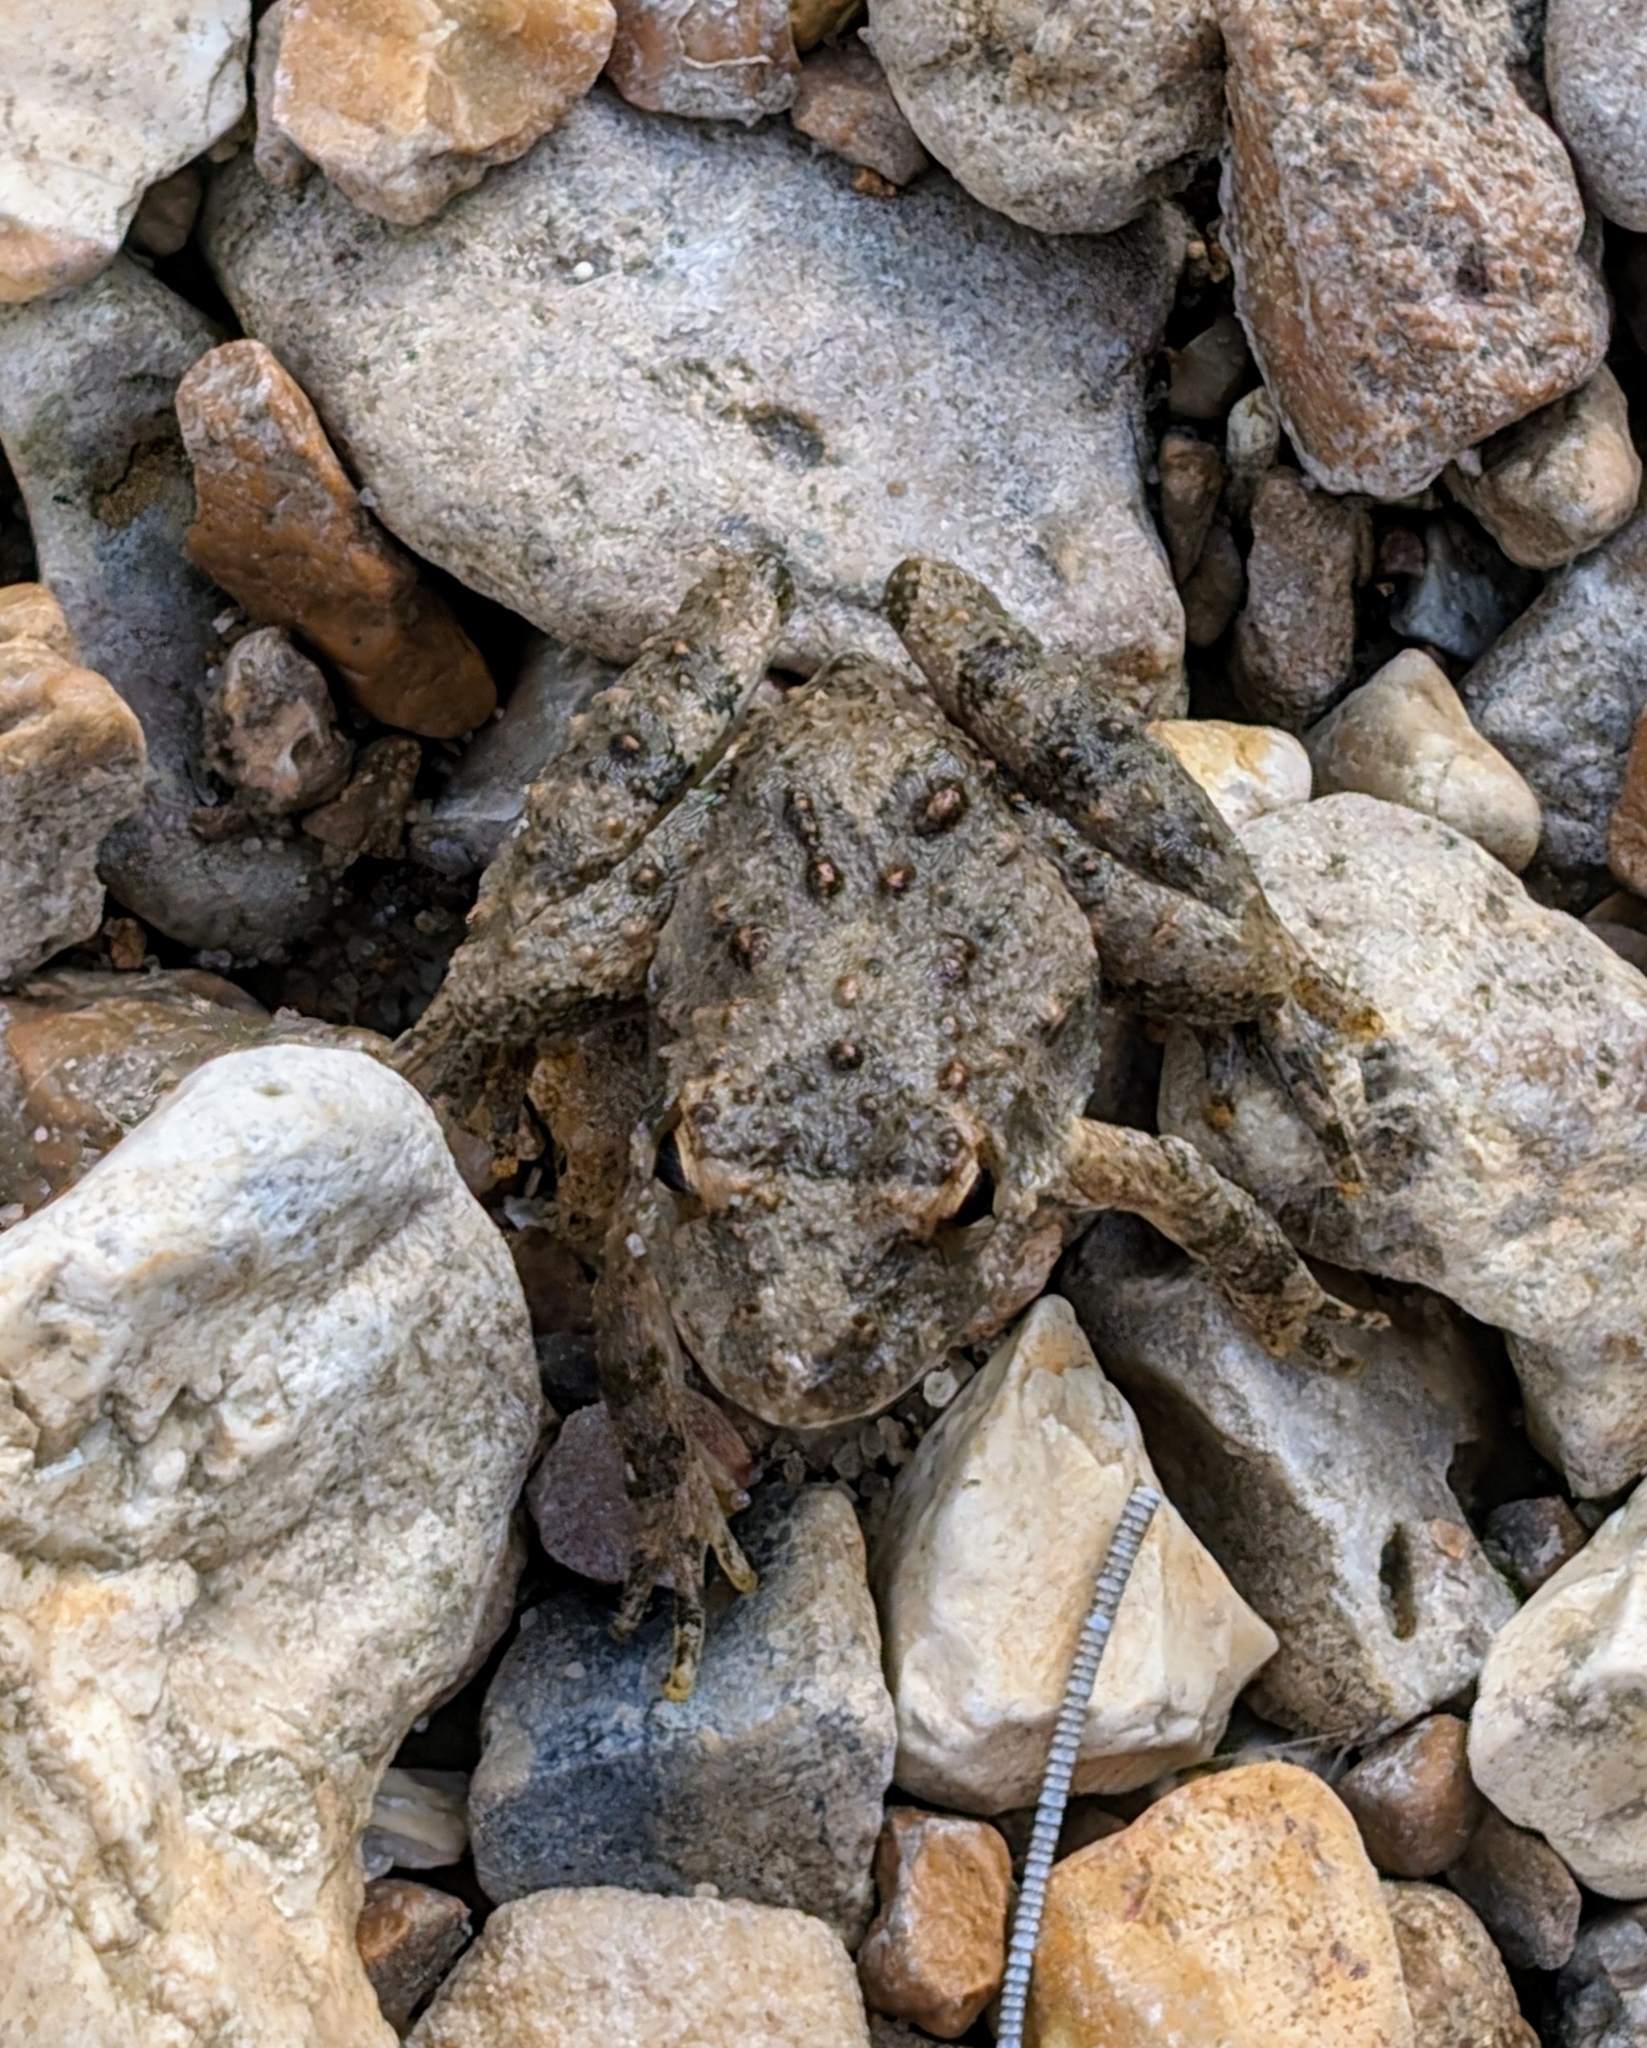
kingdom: Animalia
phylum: Chordata
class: Amphibia
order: Anura
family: Hylidae
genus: Acris
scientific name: Acris blanchardi
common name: Blanchard's cricket frog
